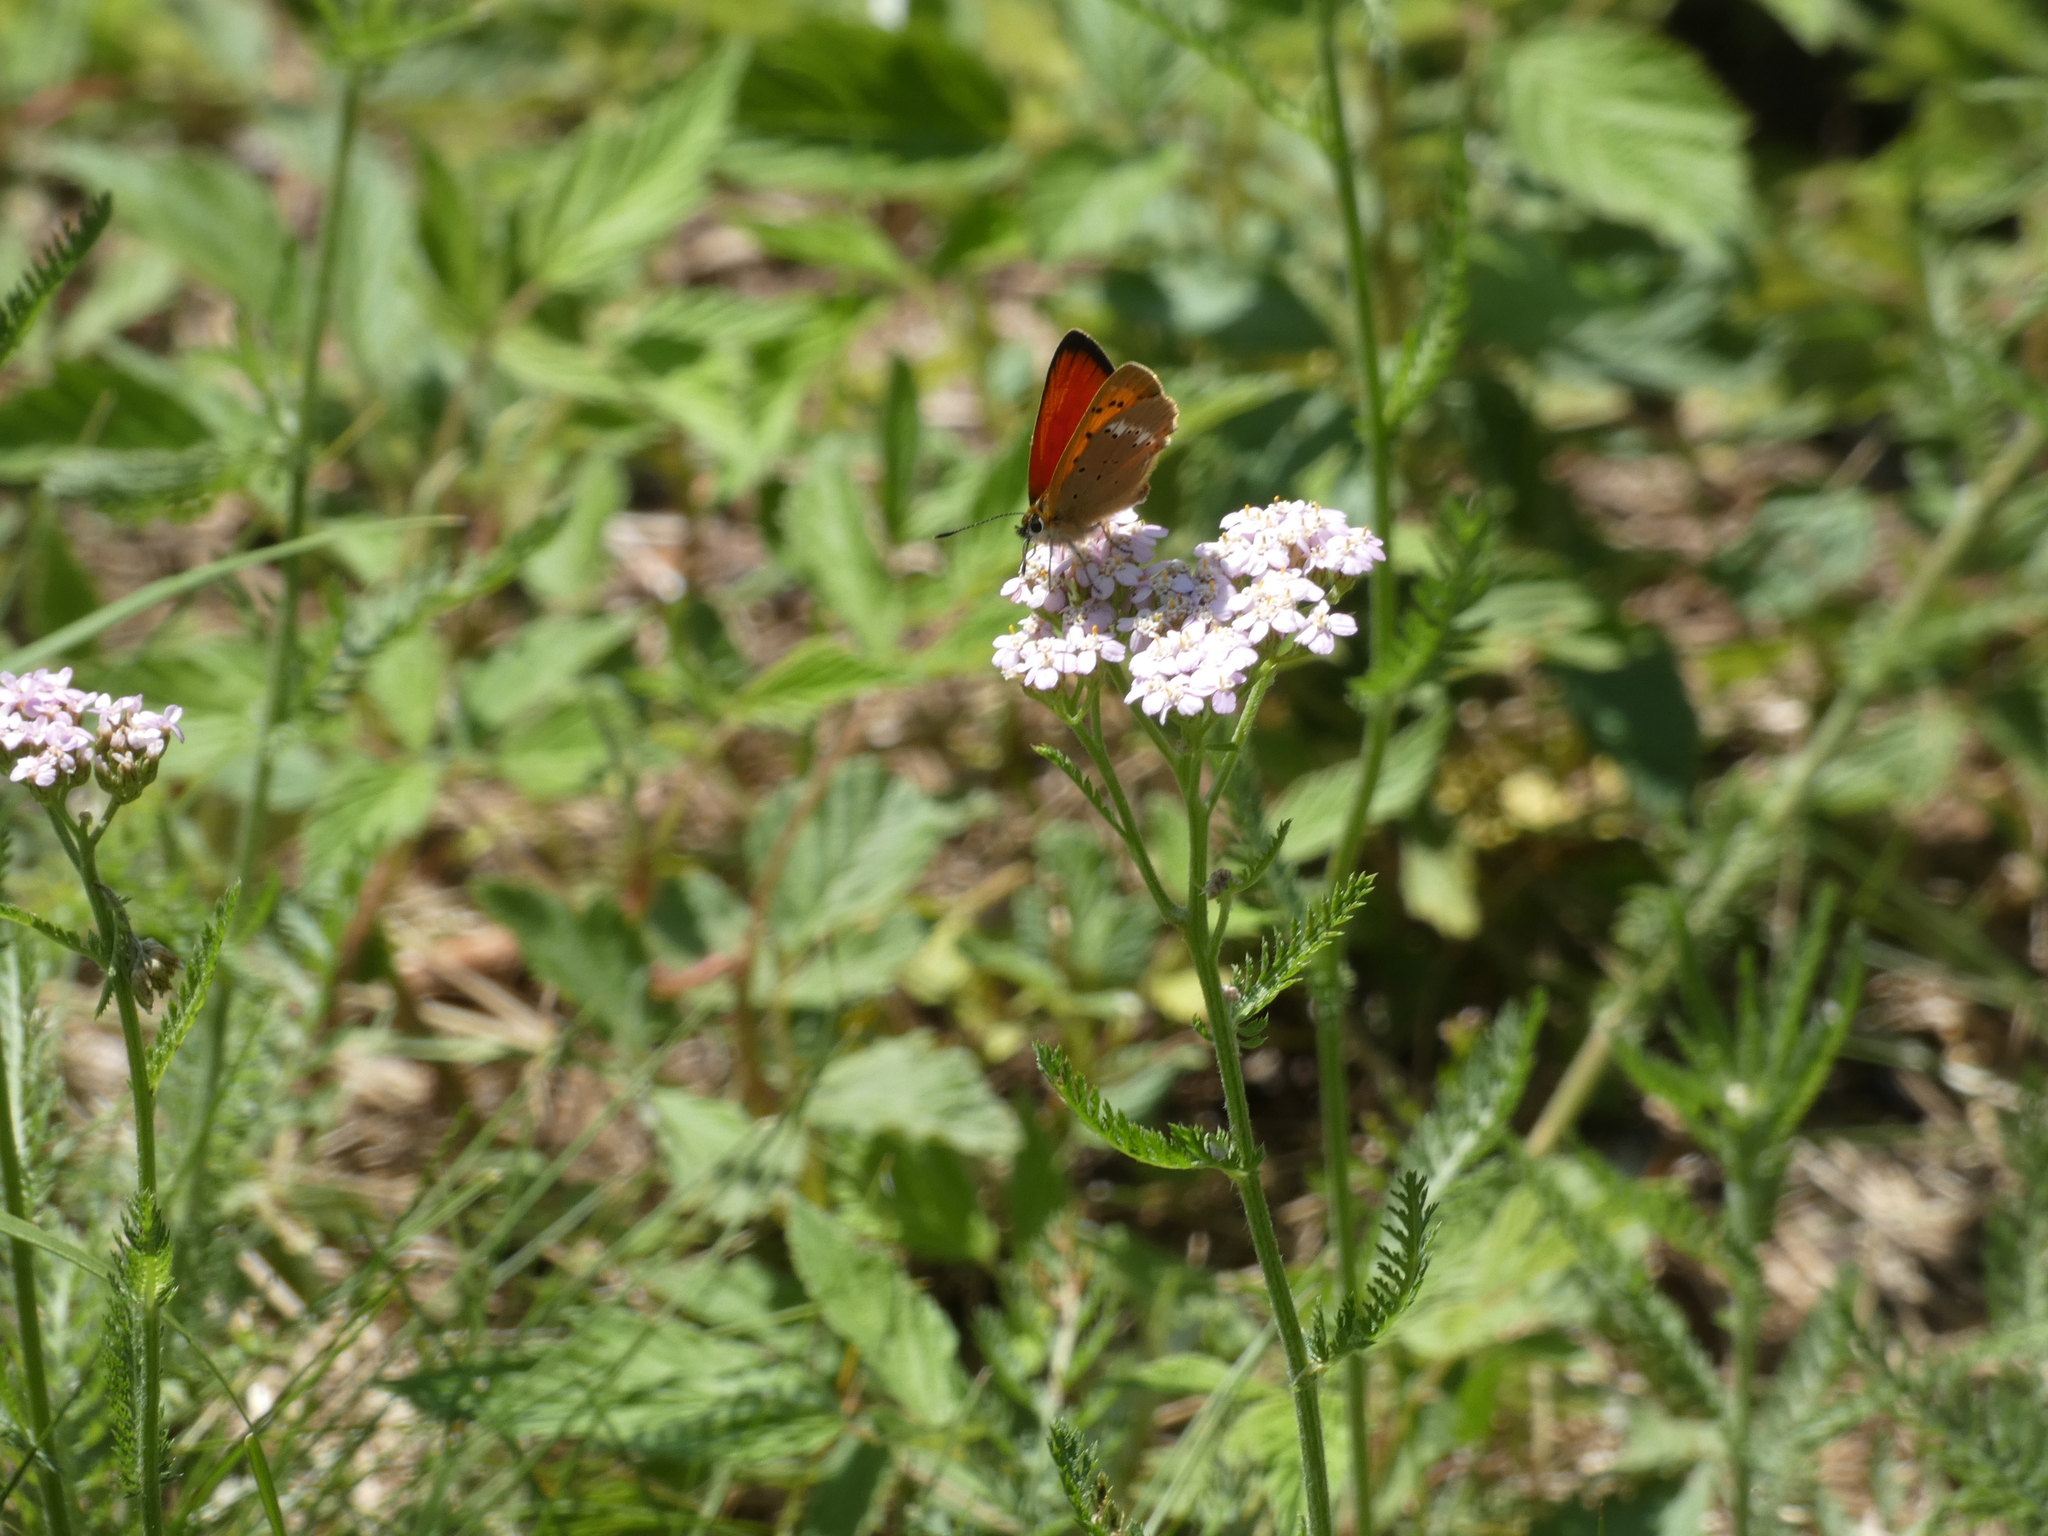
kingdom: Animalia
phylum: Arthropoda
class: Insecta
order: Lepidoptera
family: Lycaenidae
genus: Lycaena
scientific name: Lycaena virgaureae
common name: Scarce copper
